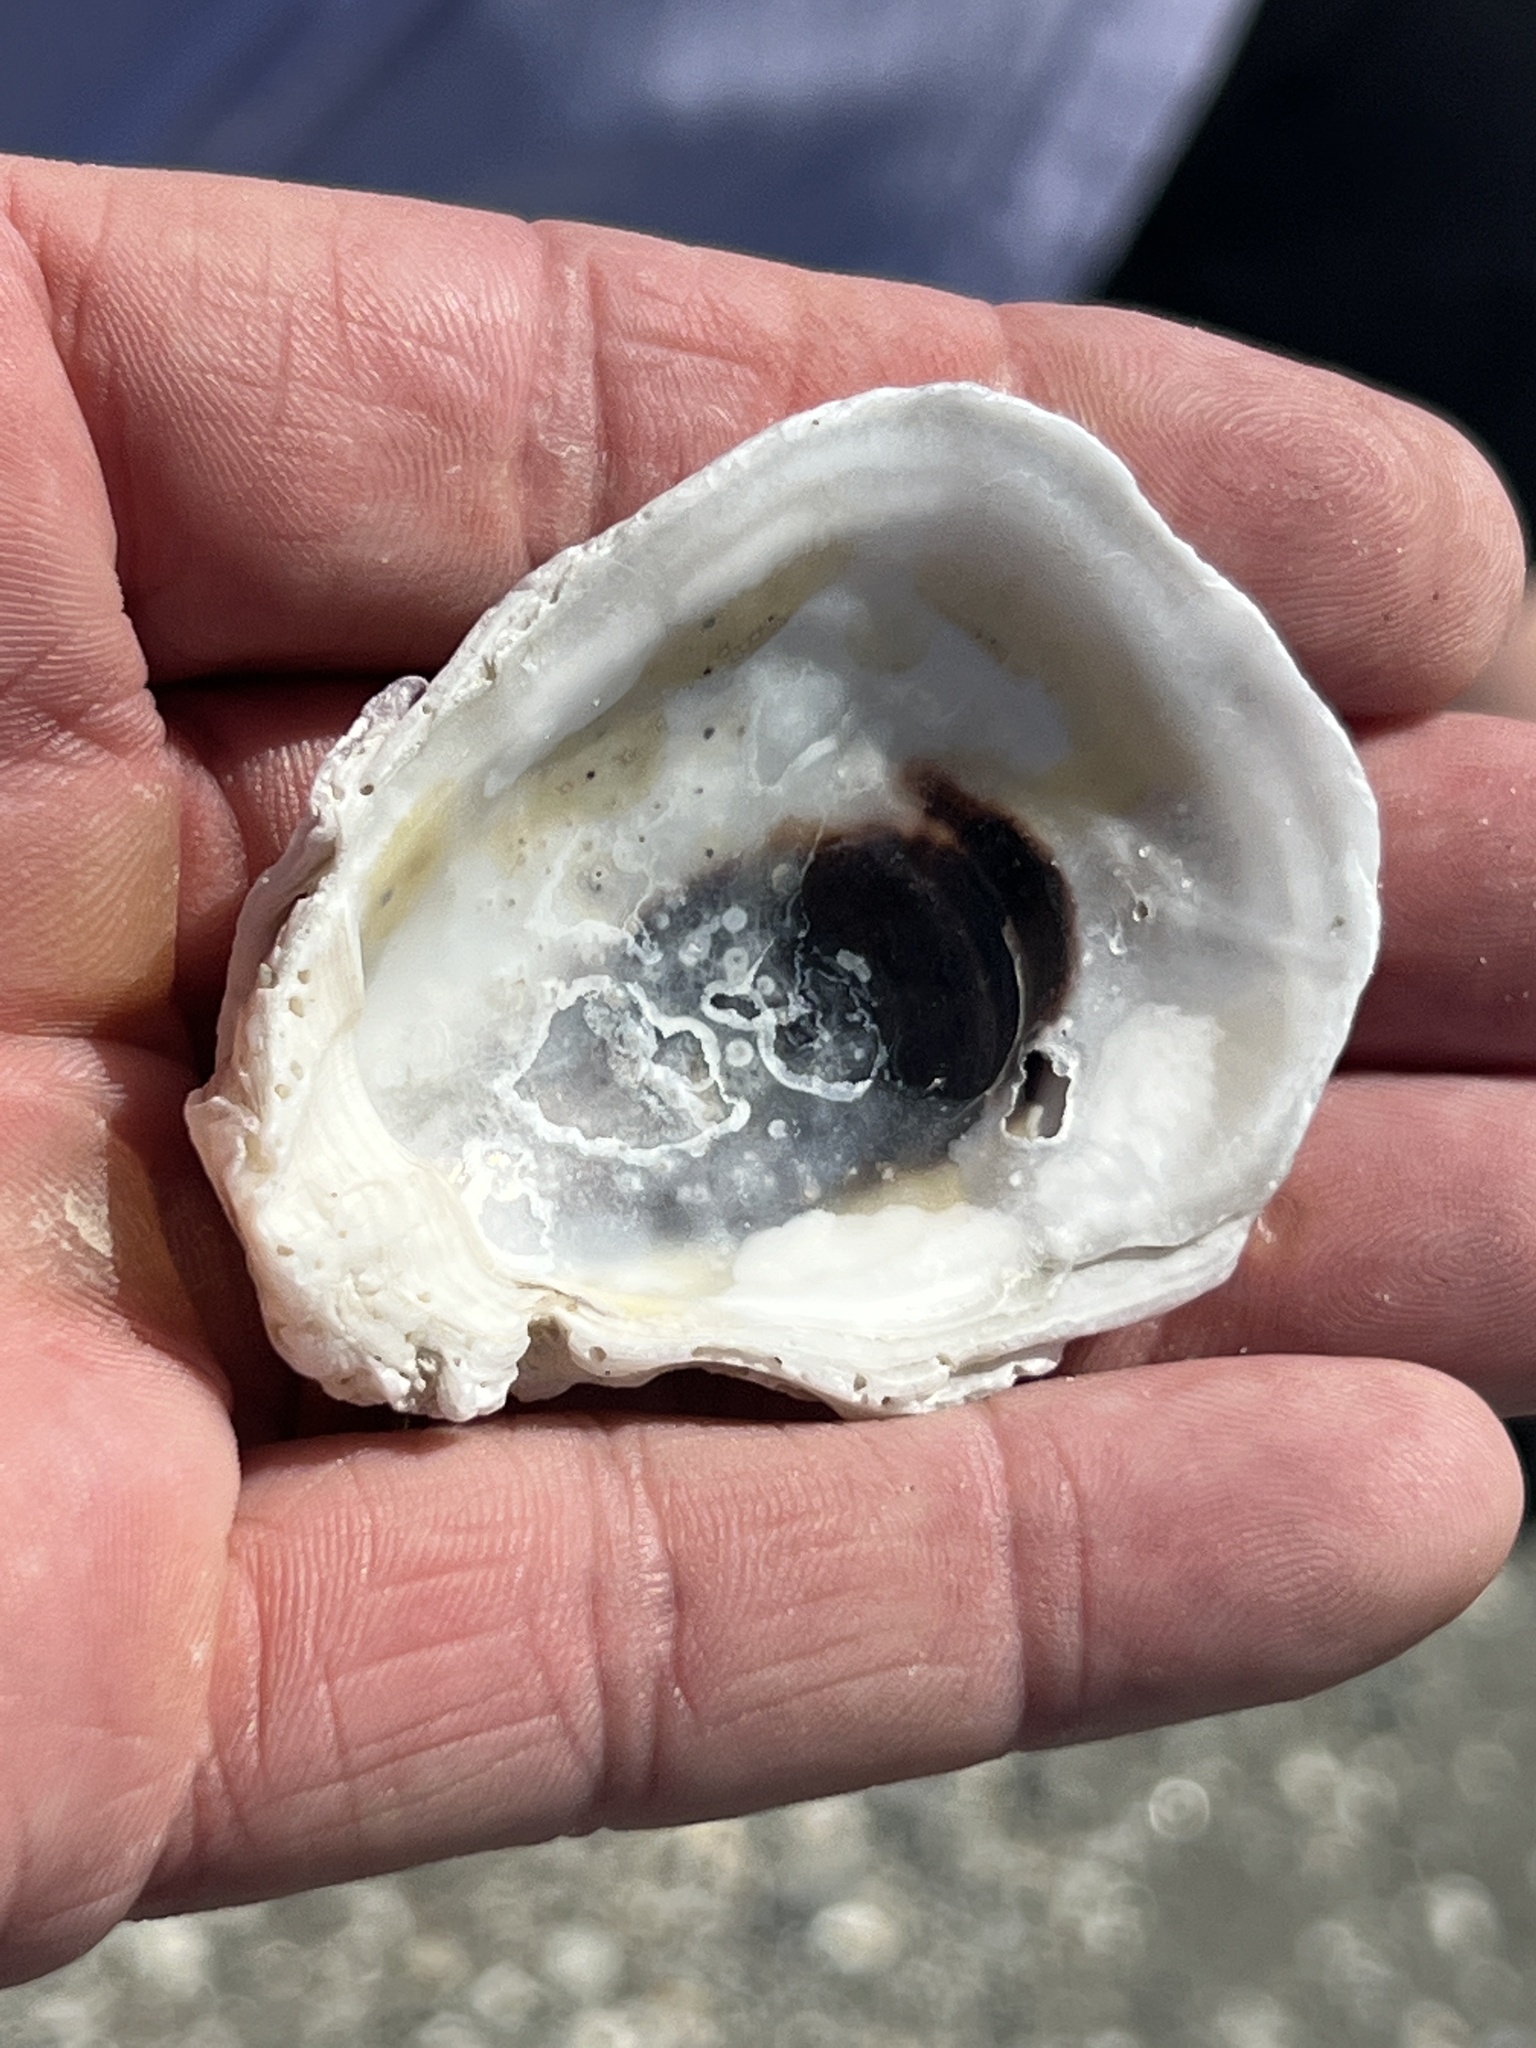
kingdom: Animalia
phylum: Mollusca
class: Bivalvia
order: Ostreida
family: Ostreidae
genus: Crassostrea
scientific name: Crassostrea virginica
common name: American oyster
